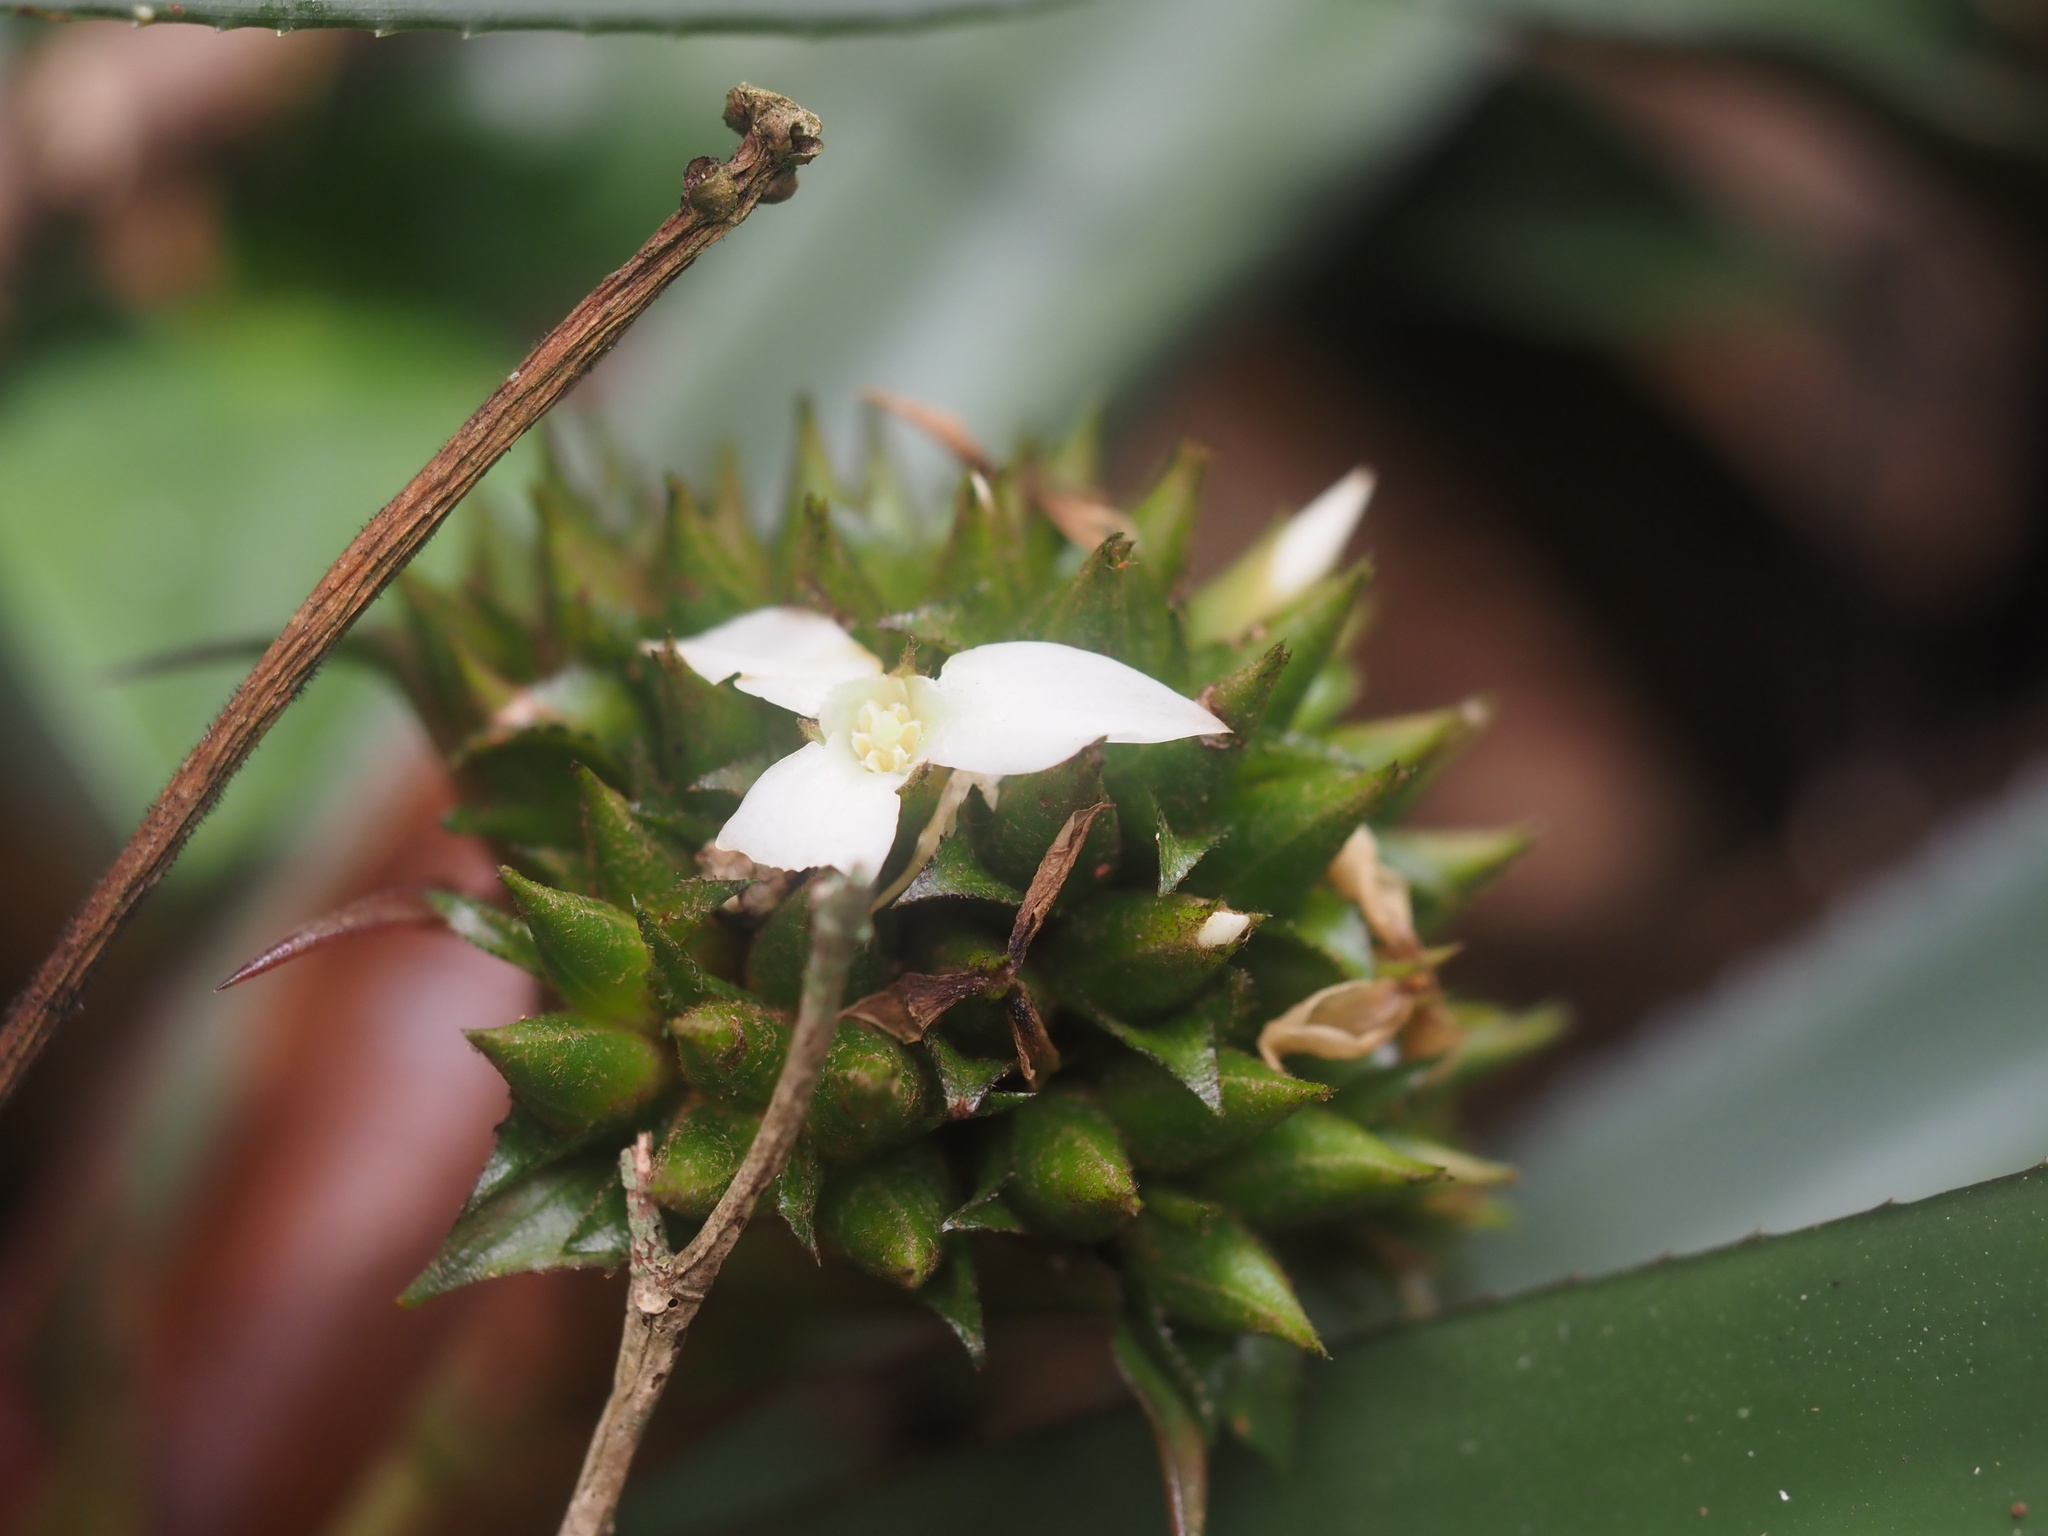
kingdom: Plantae
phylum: Tracheophyta
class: Liliopsida
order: Poales
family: Bromeliaceae
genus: Canistropsis
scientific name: Canistropsis burchellii
